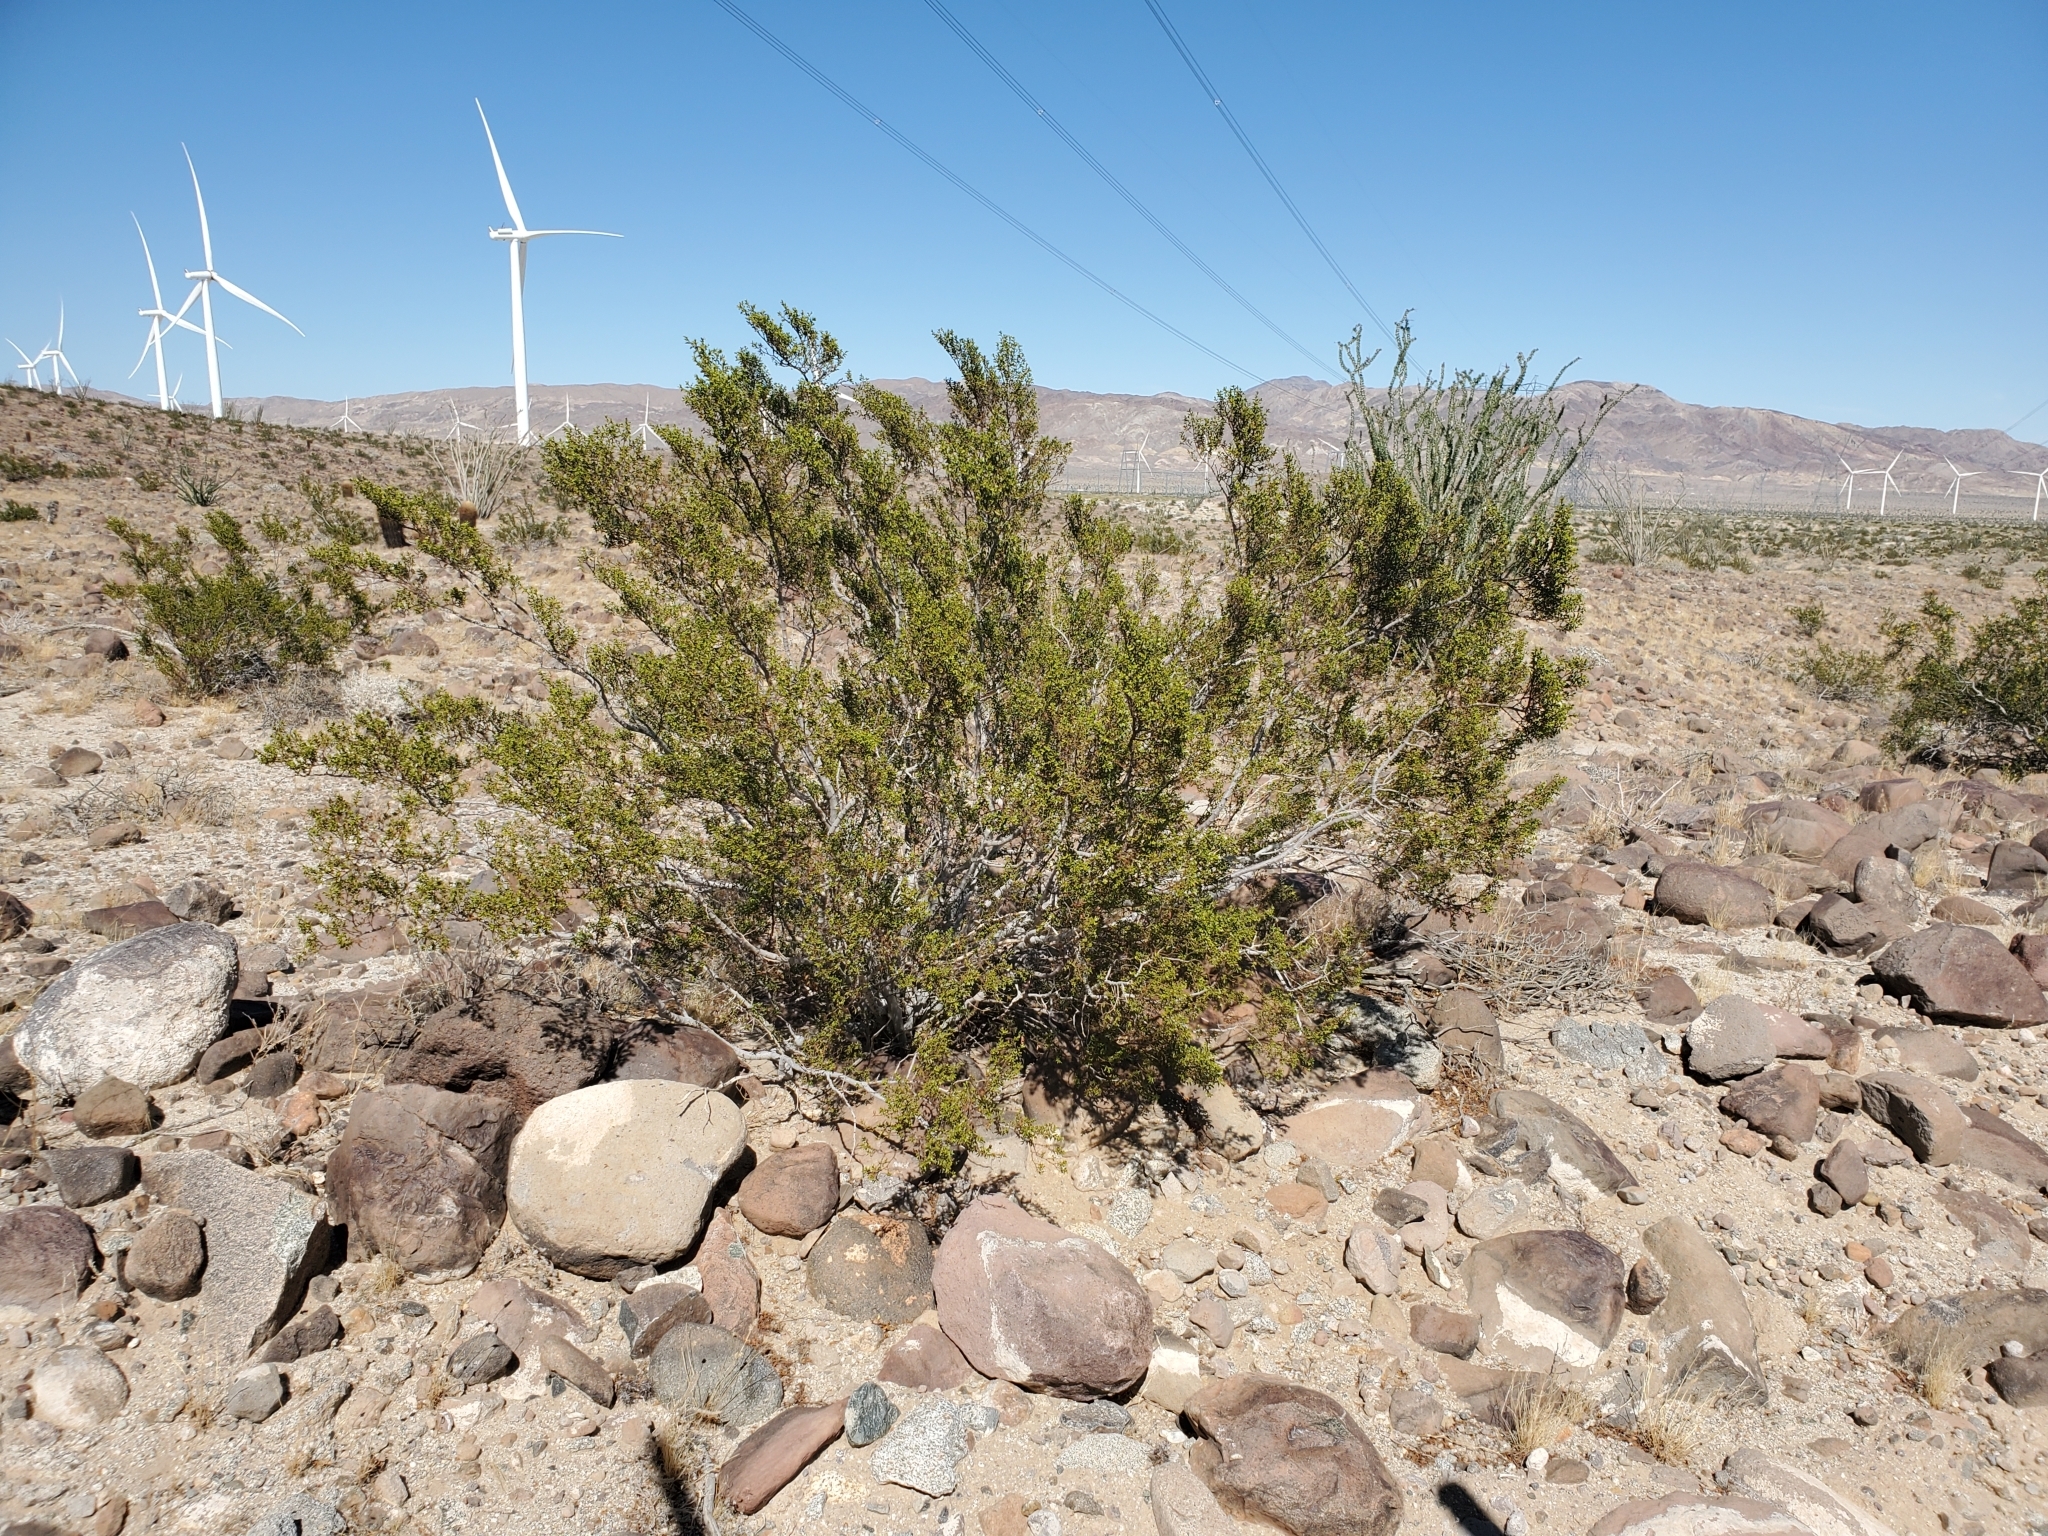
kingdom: Plantae
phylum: Tracheophyta
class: Magnoliopsida
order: Zygophyllales
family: Zygophyllaceae
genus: Larrea
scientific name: Larrea tridentata
